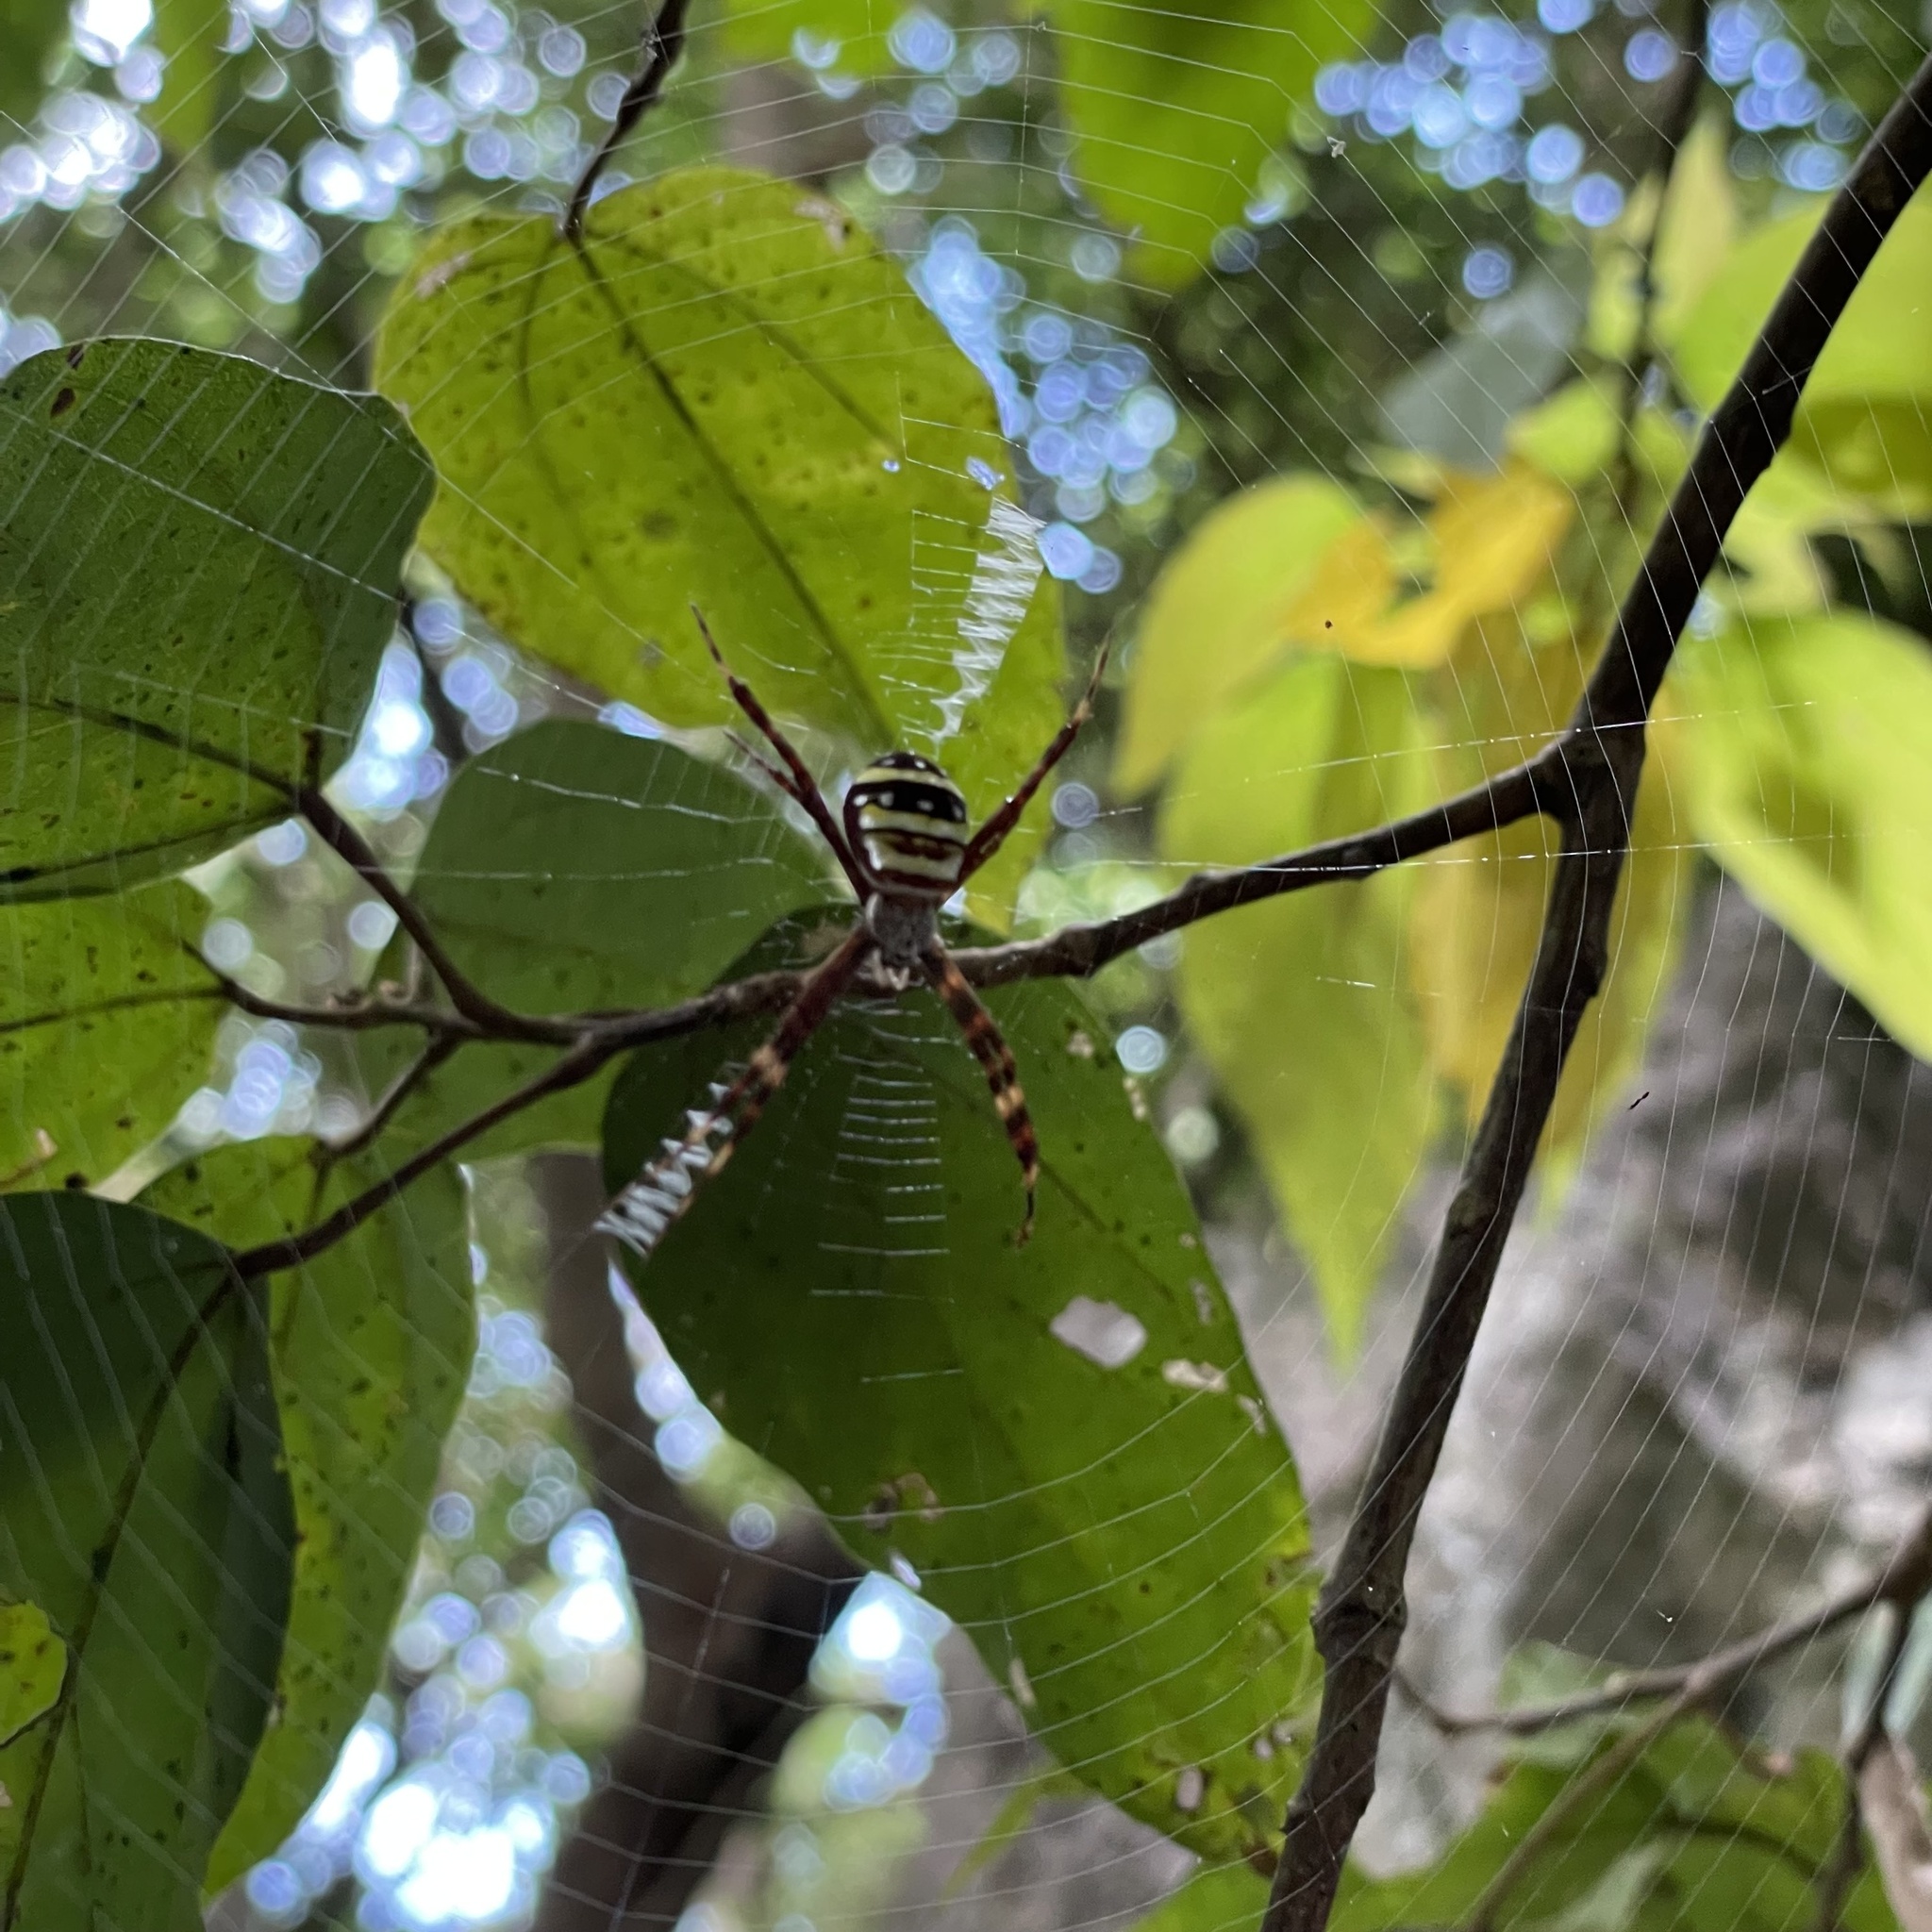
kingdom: Animalia
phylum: Arthropoda
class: Arachnida
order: Araneae
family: Araneidae
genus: Argiope
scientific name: Argiope amoena
